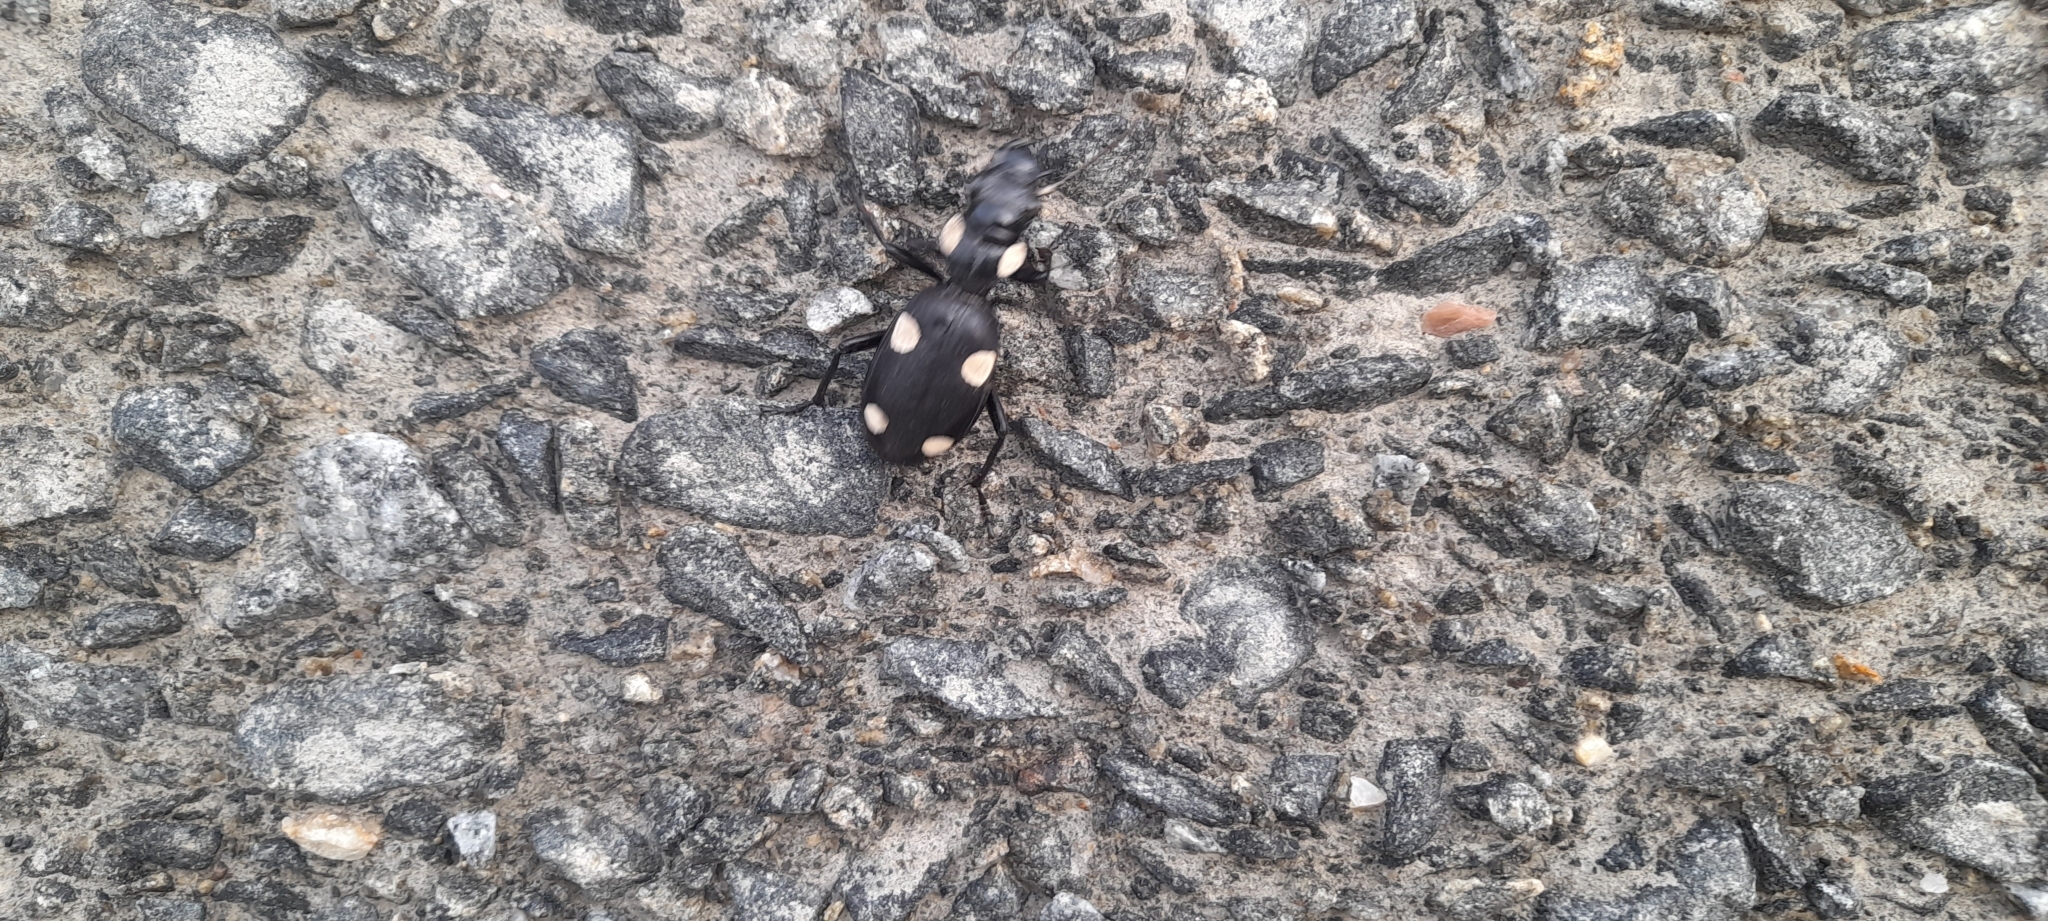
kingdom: Animalia
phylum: Arthropoda
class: Insecta
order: Coleoptera
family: Carabidae
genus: Anthia
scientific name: Anthia sexguttata
